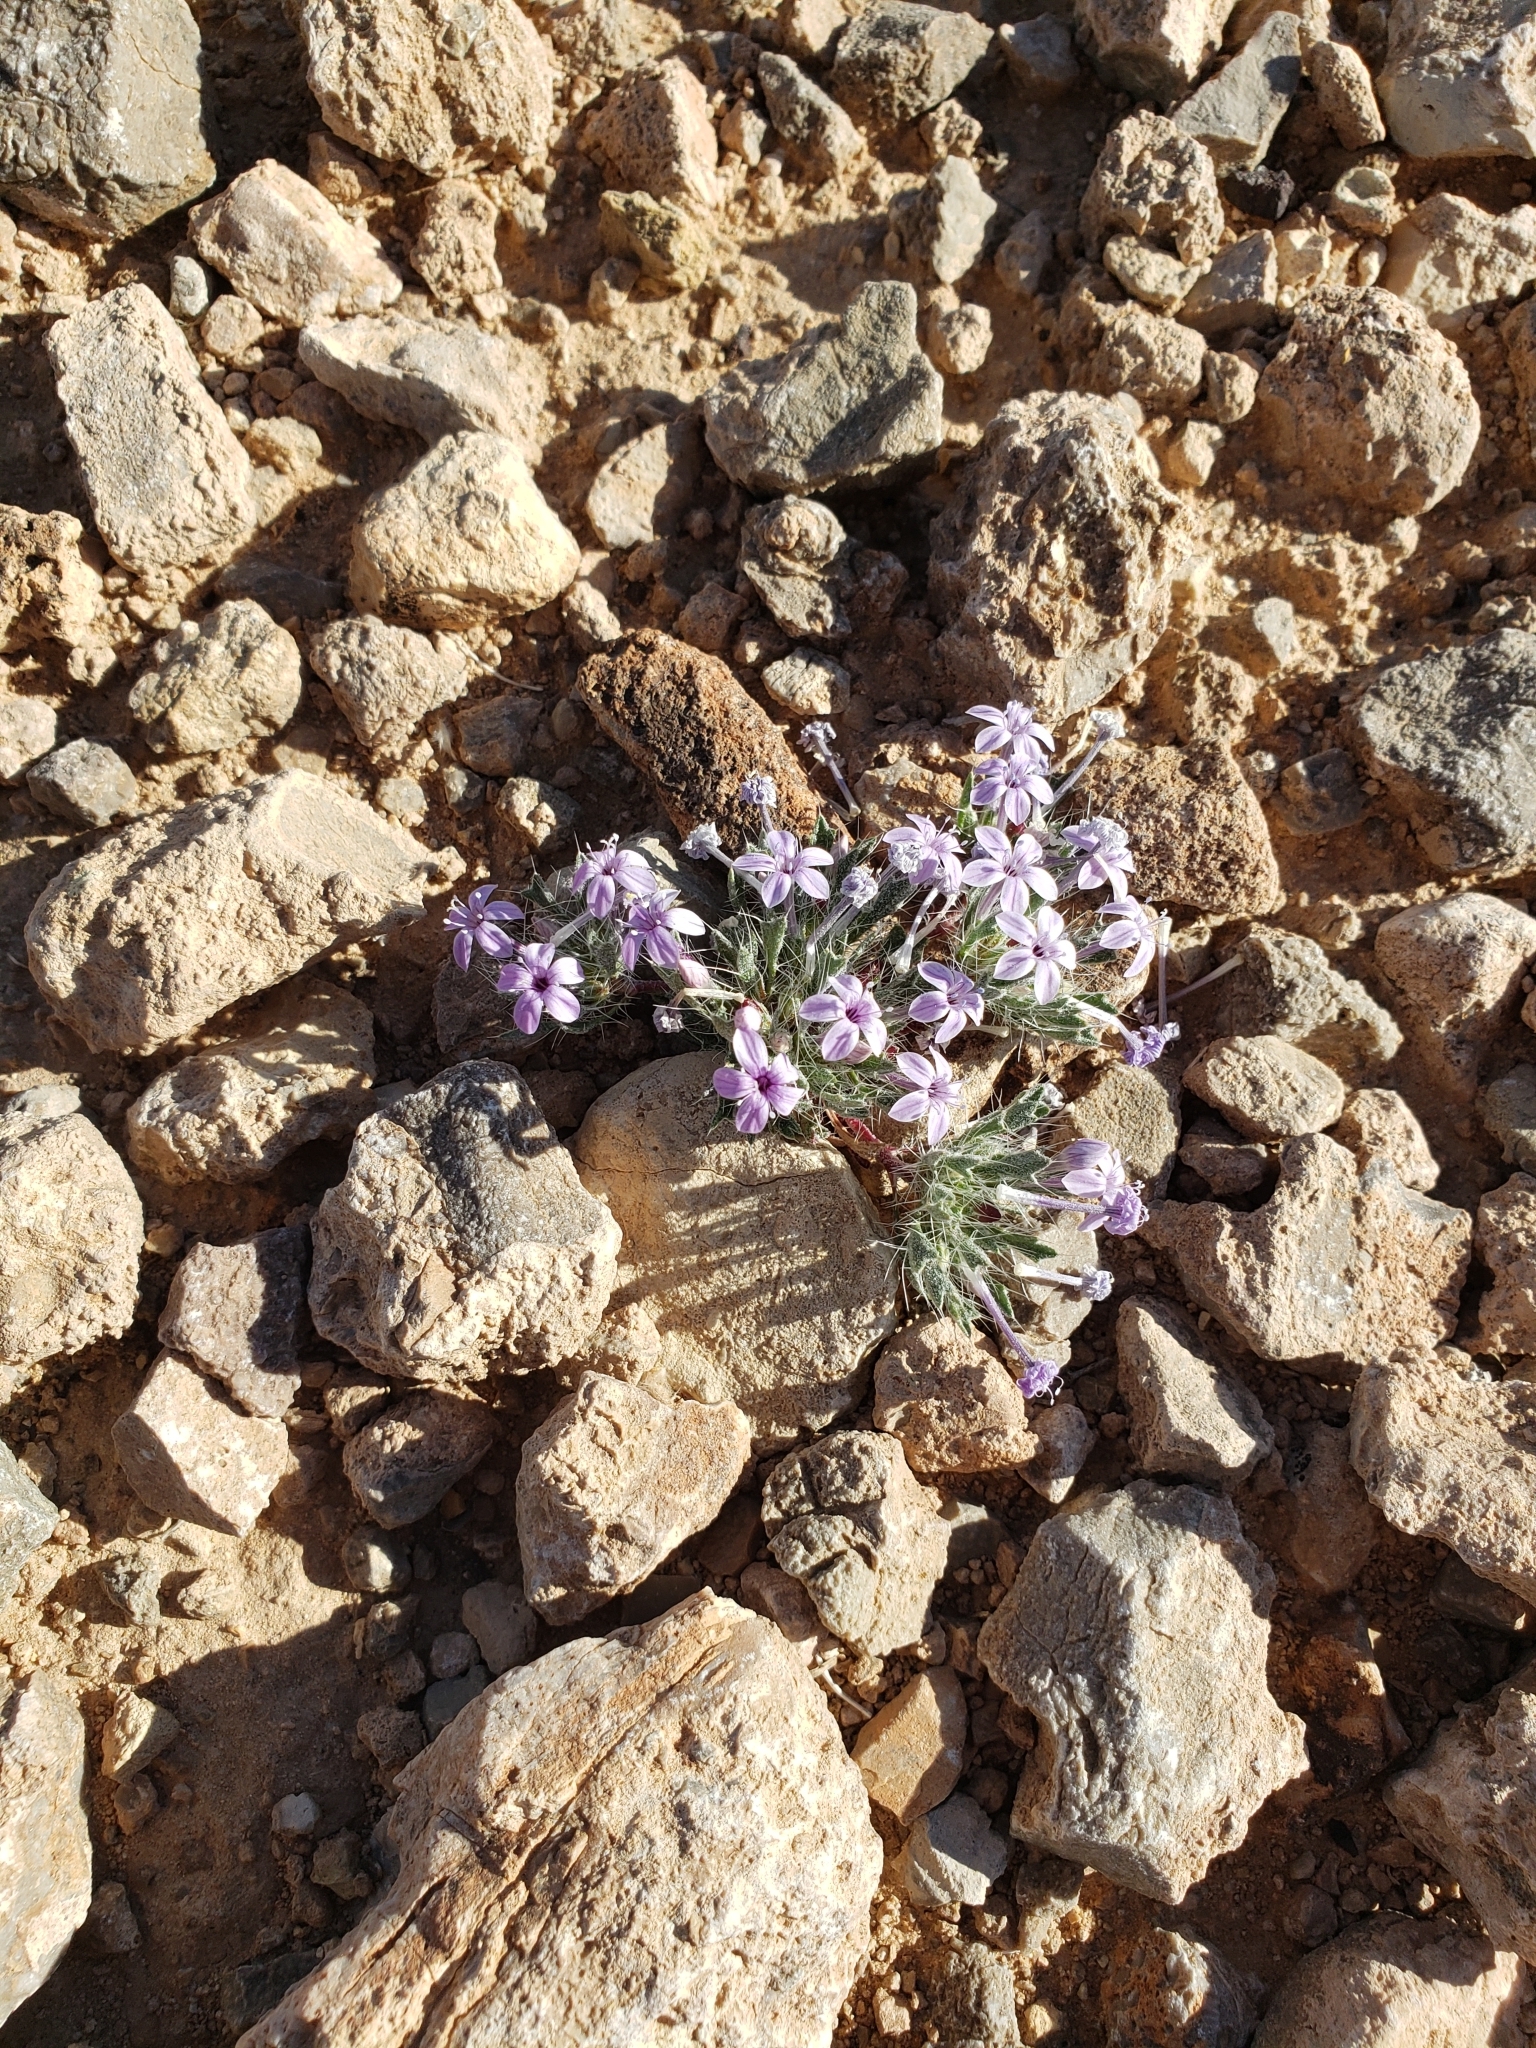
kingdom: Plantae
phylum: Tracheophyta
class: Magnoliopsida
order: Ericales
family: Polemoniaceae
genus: Langloisia
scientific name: Langloisia setosissima
